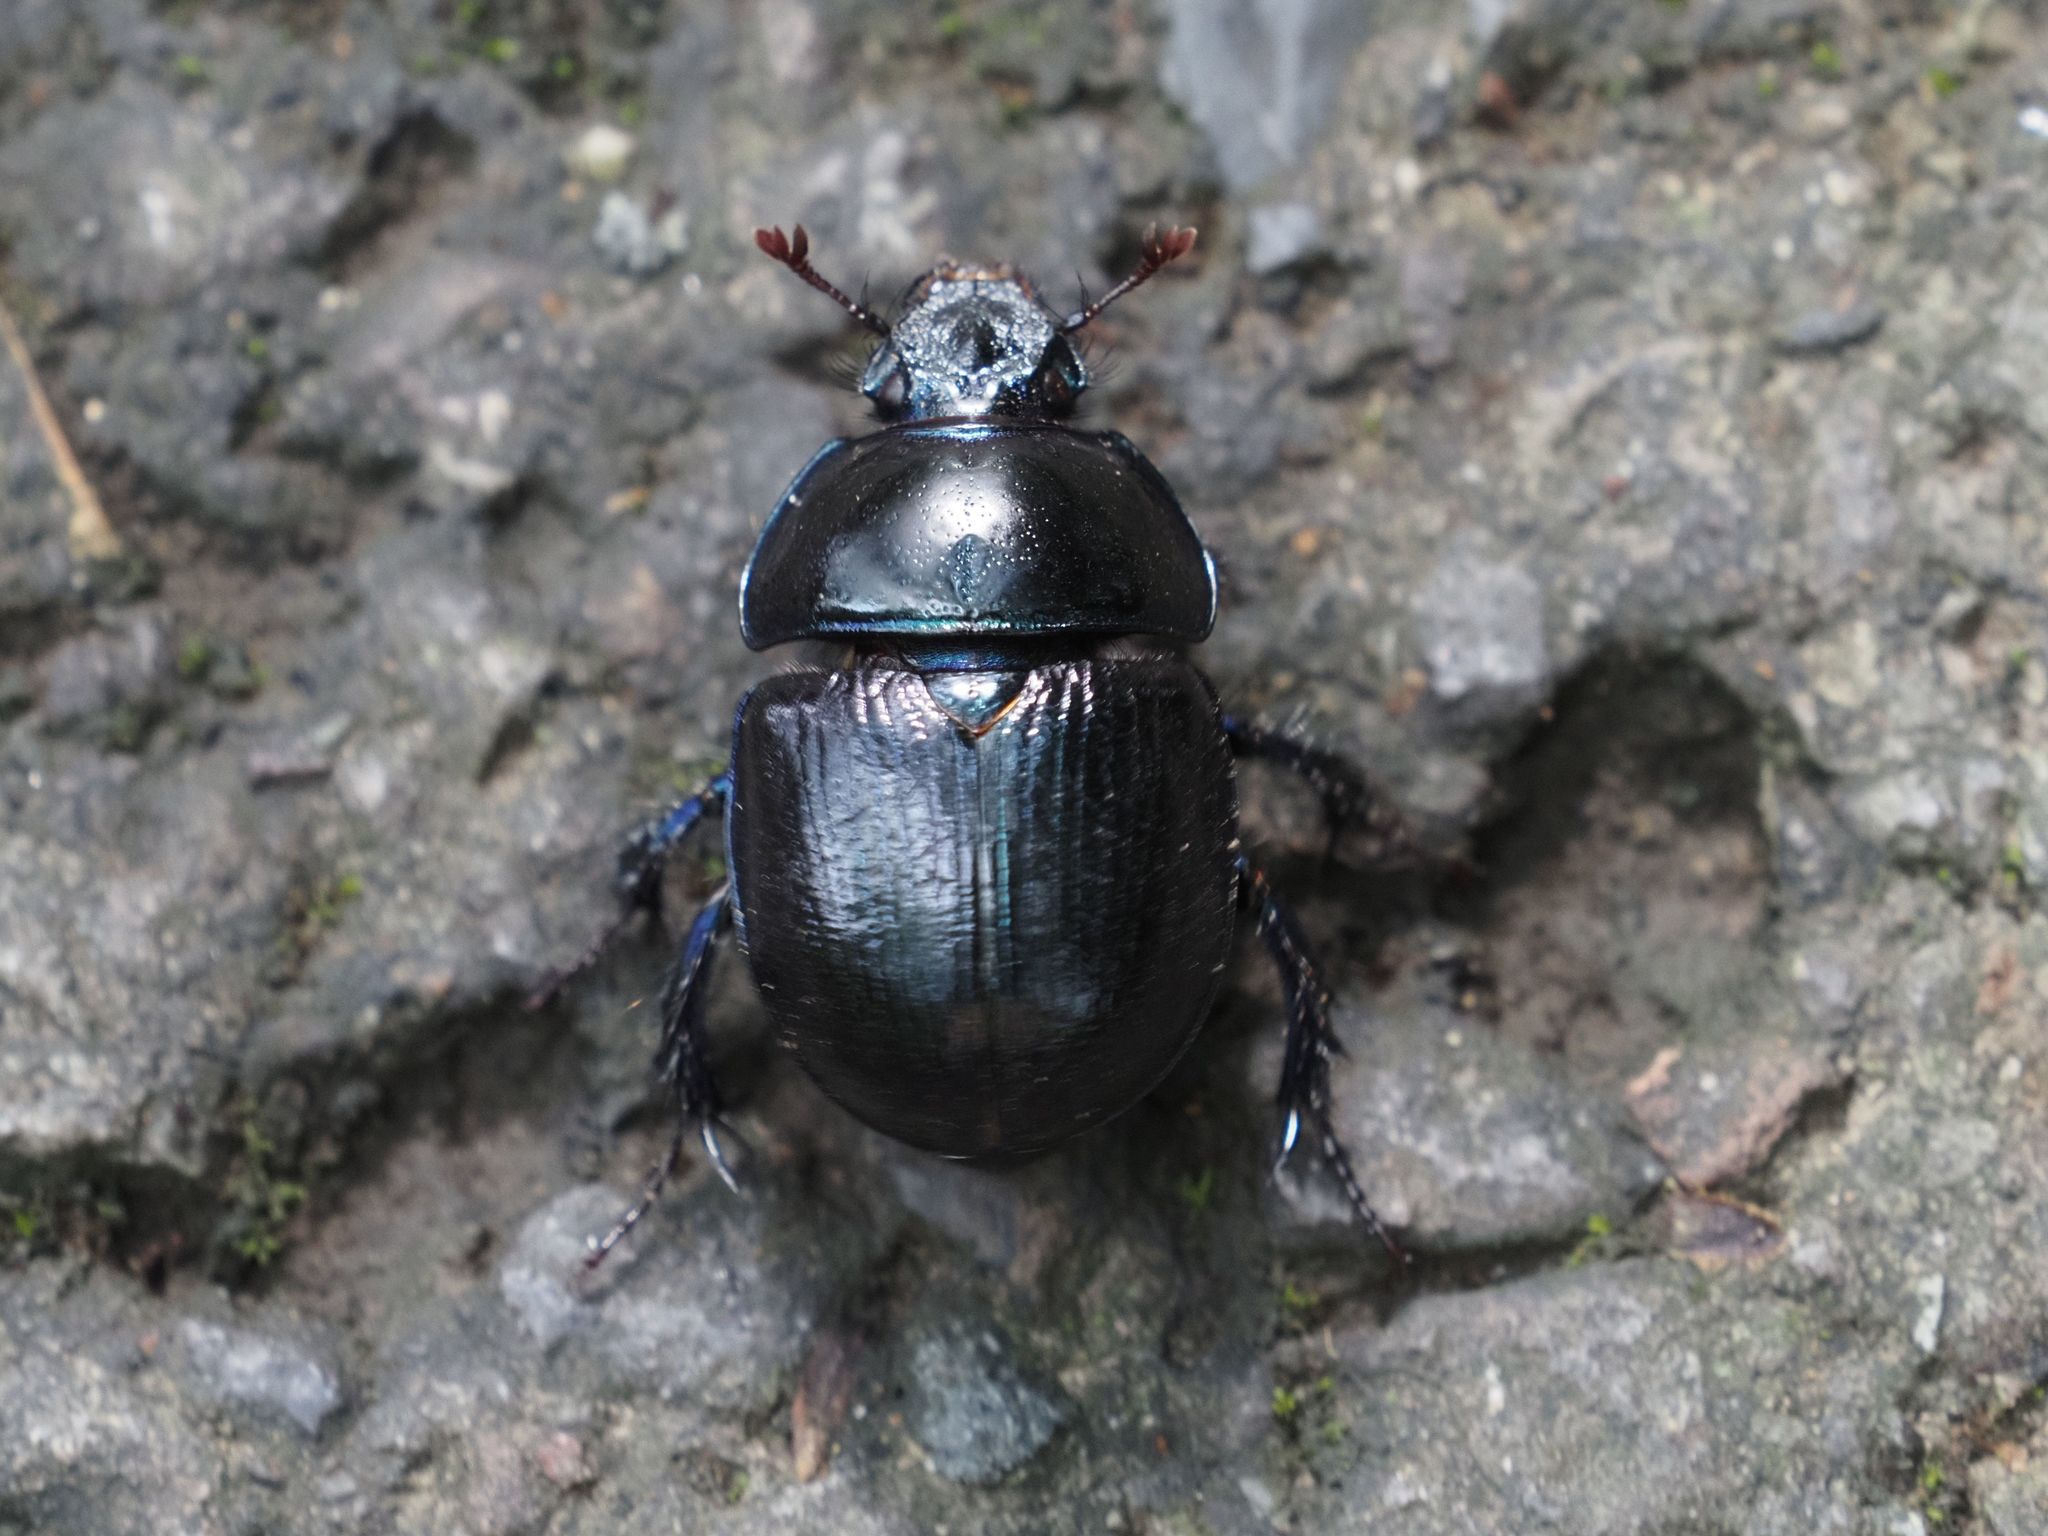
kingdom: Animalia
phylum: Arthropoda
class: Insecta
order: Coleoptera
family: Geotrupidae
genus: Anoplotrupes
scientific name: Anoplotrupes stercorosus
